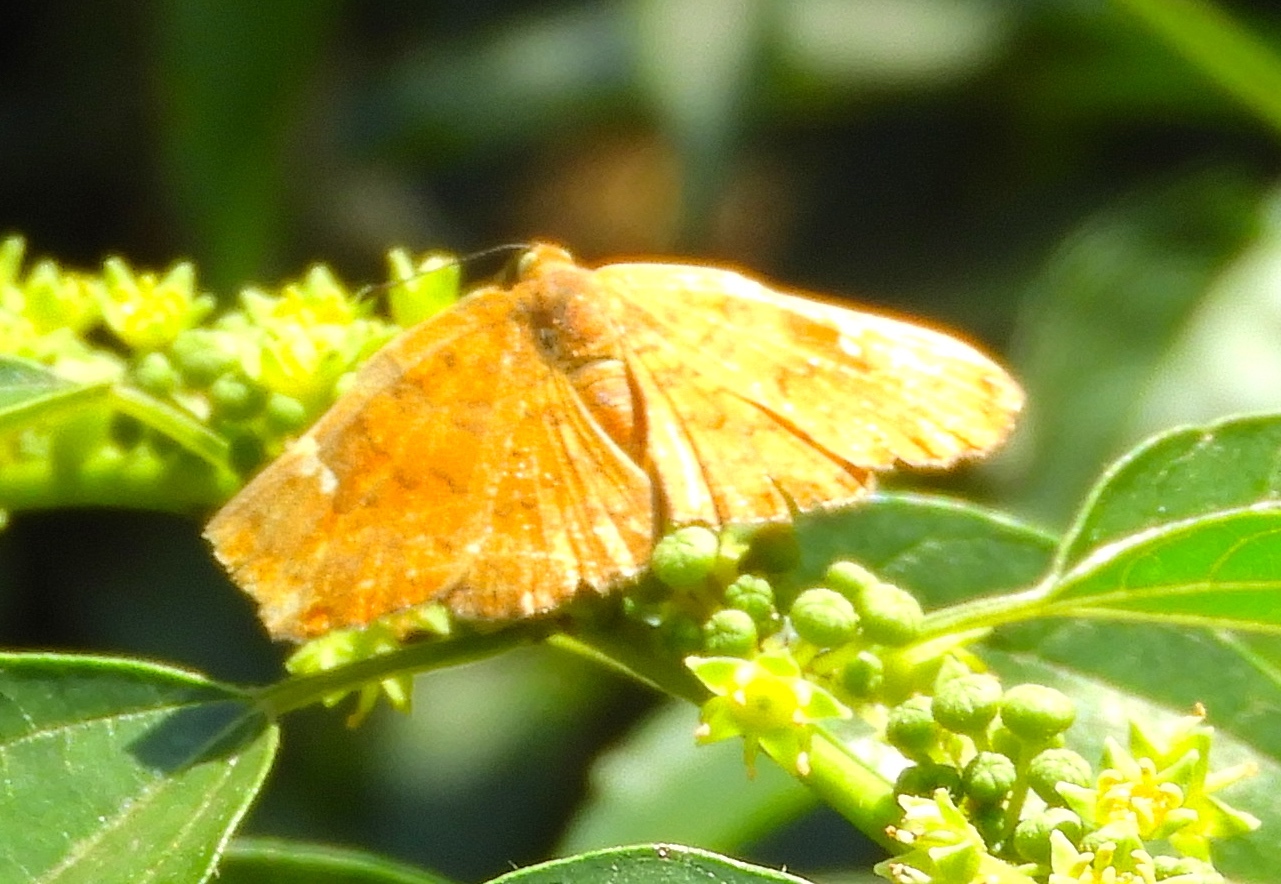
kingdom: Animalia
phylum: Arthropoda
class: Insecta
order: Lepidoptera
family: Riodinidae
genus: Curvie
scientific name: Curvie emesia
